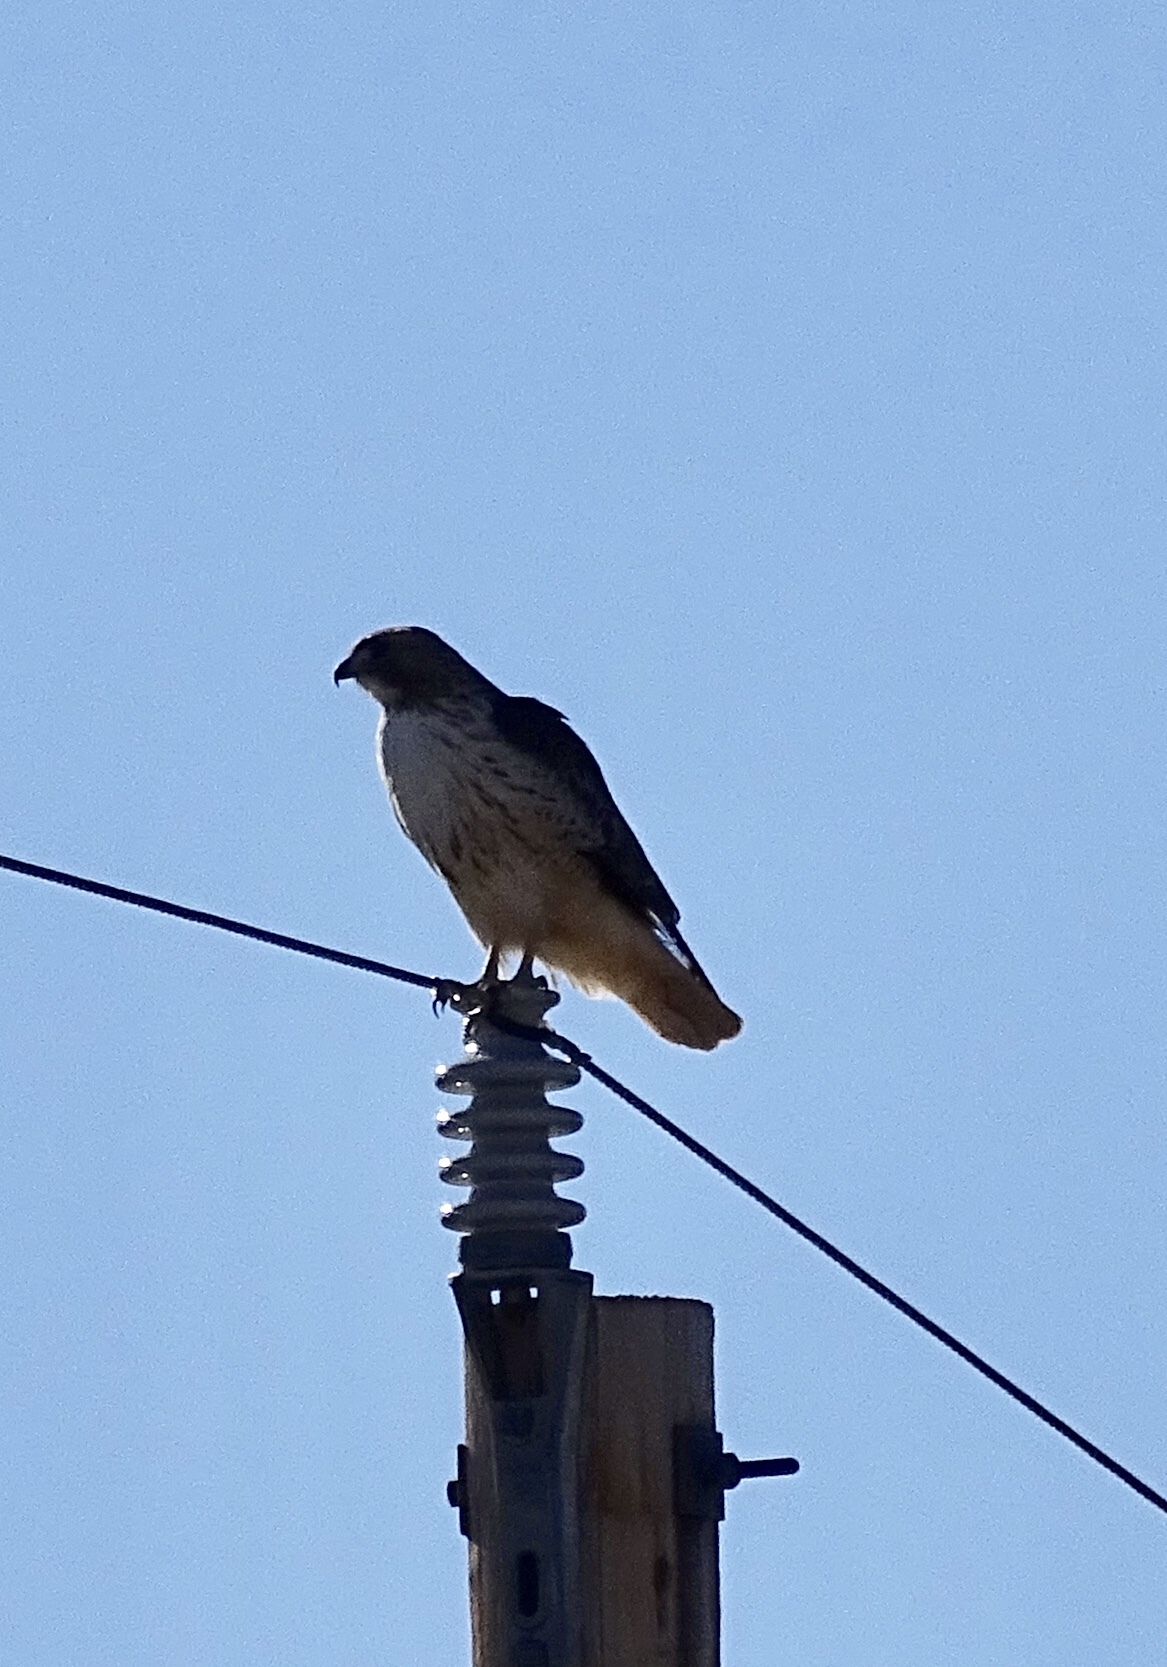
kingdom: Animalia
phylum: Chordata
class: Aves
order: Accipitriformes
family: Accipitridae
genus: Buteo
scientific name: Buteo jamaicensis
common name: Red-tailed hawk
